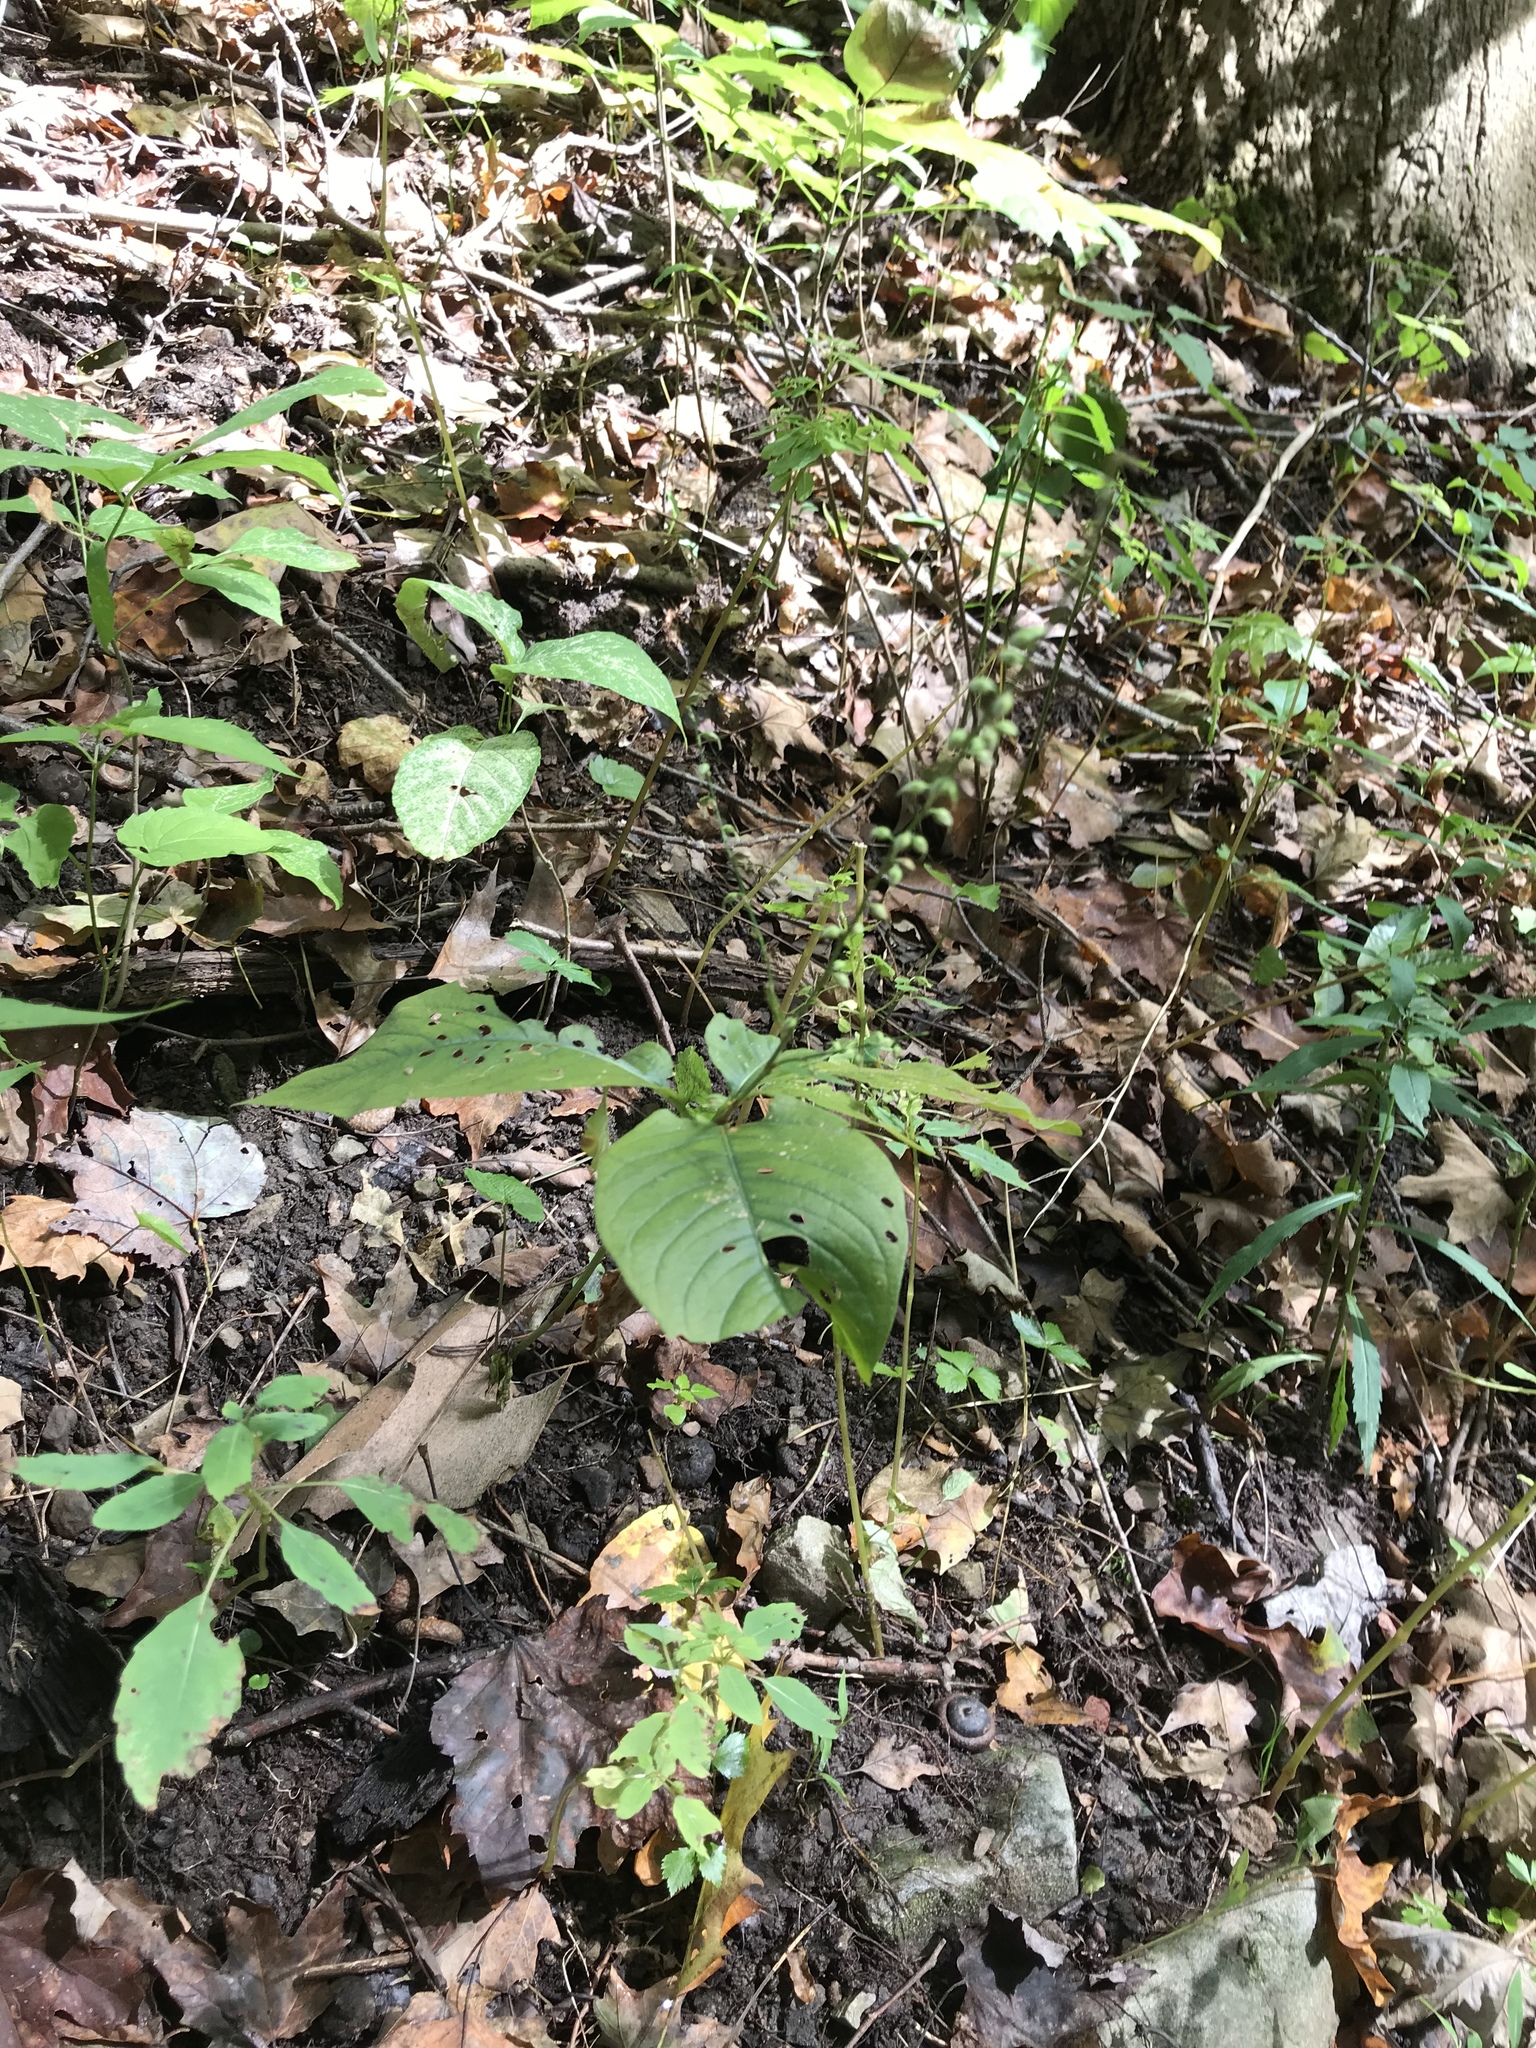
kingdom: Plantae
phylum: Tracheophyta
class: Magnoliopsida
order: Caryophyllales
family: Polygonaceae
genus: Persicaria
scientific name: Persicaria virginiana
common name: Jumpseed
